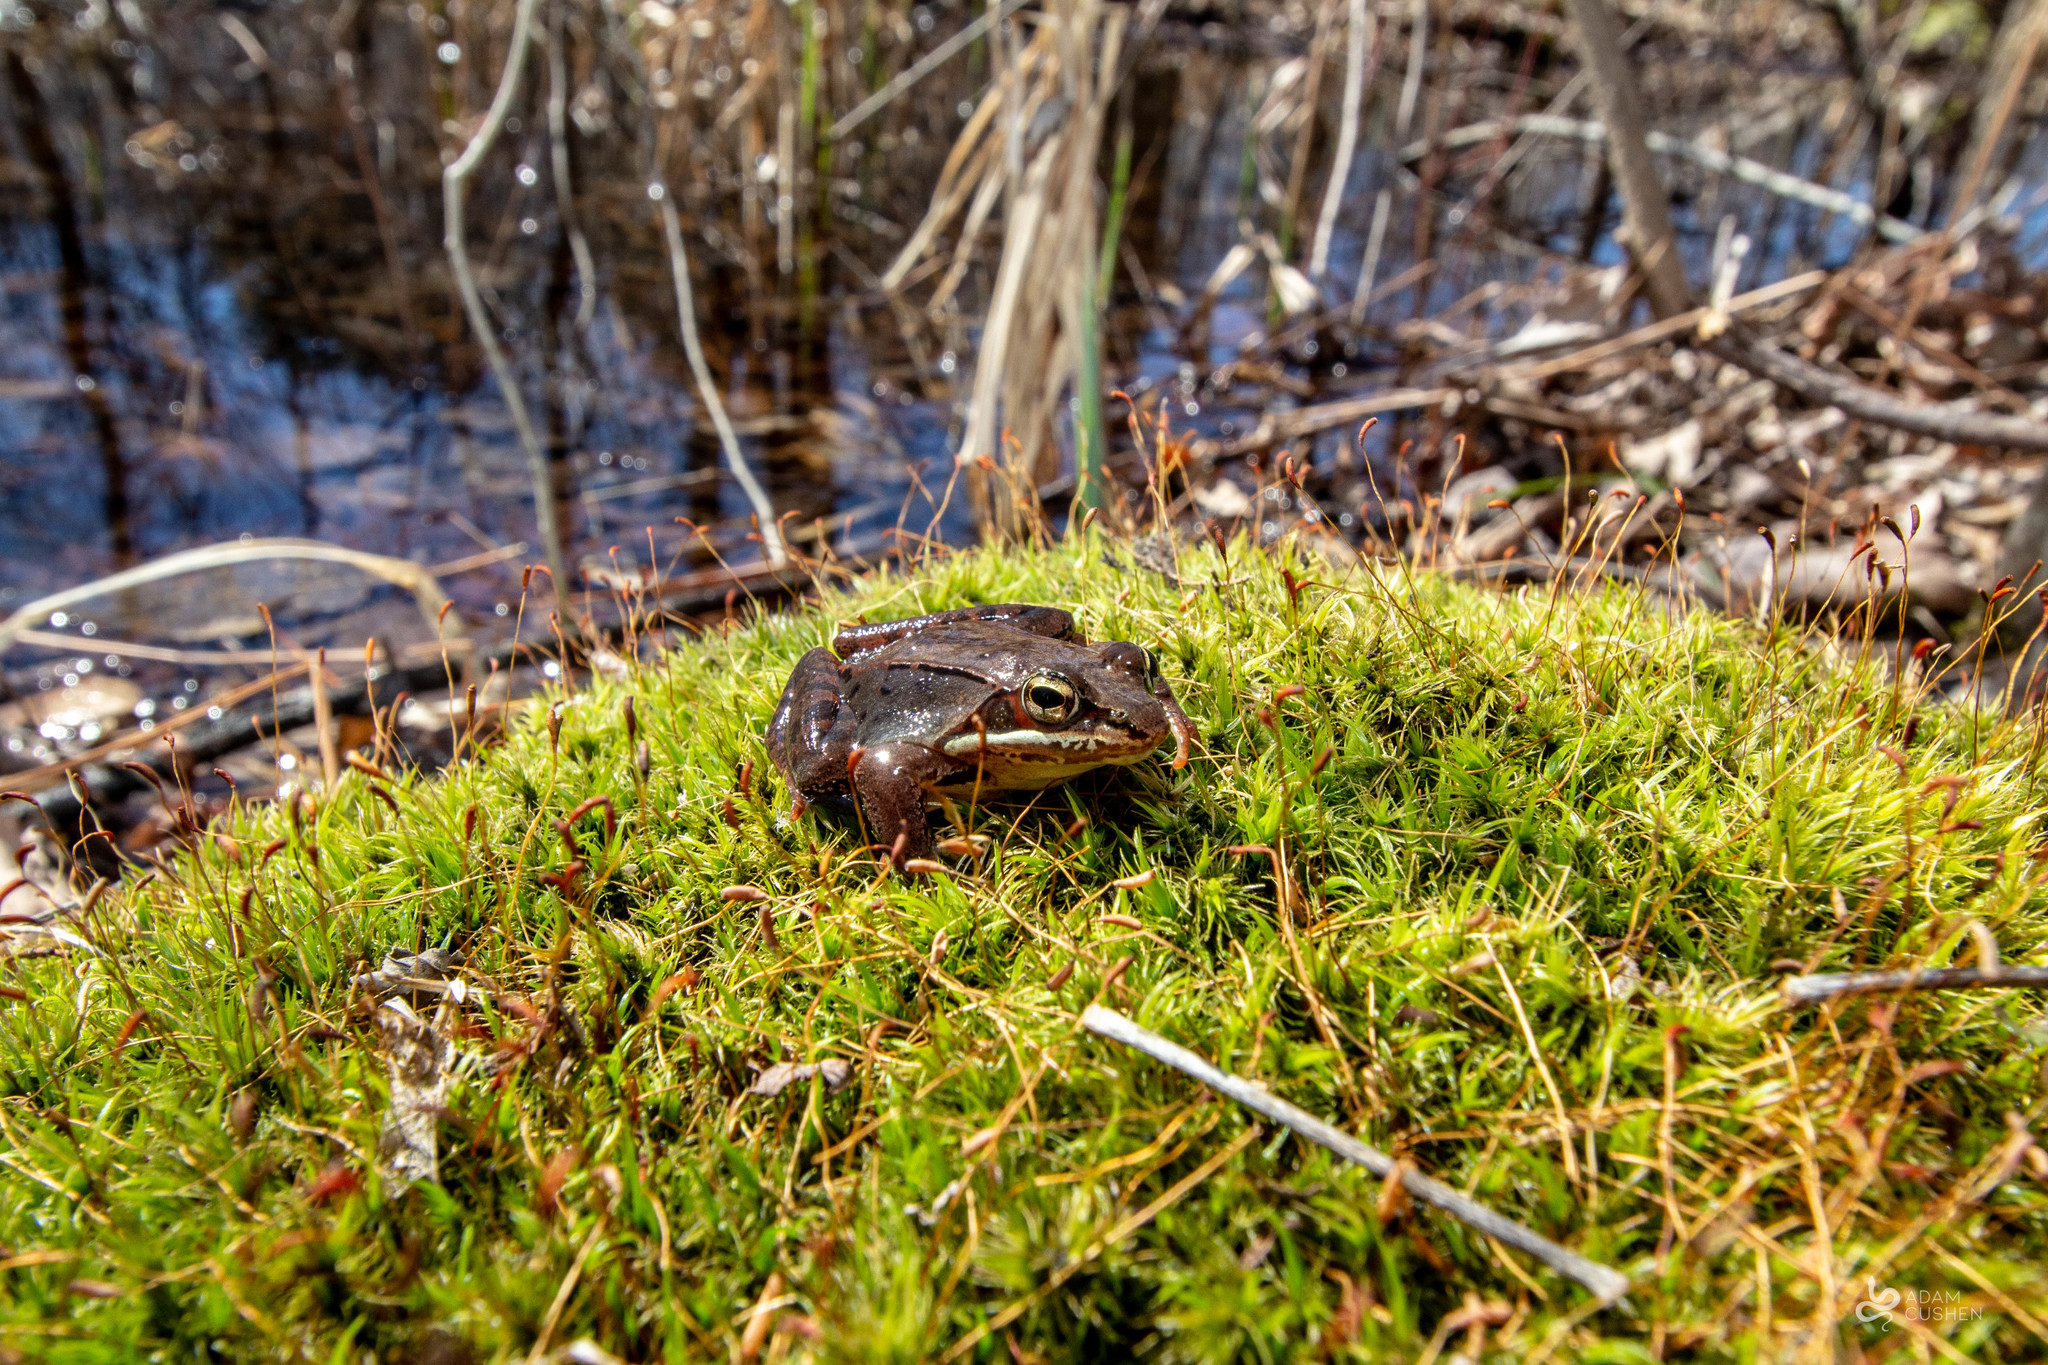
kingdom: Animalia
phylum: Chordata
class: Amphibia
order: Anura
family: Ranidae
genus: Lithobates
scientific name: Lithobates sylvaticus
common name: Wood frog
